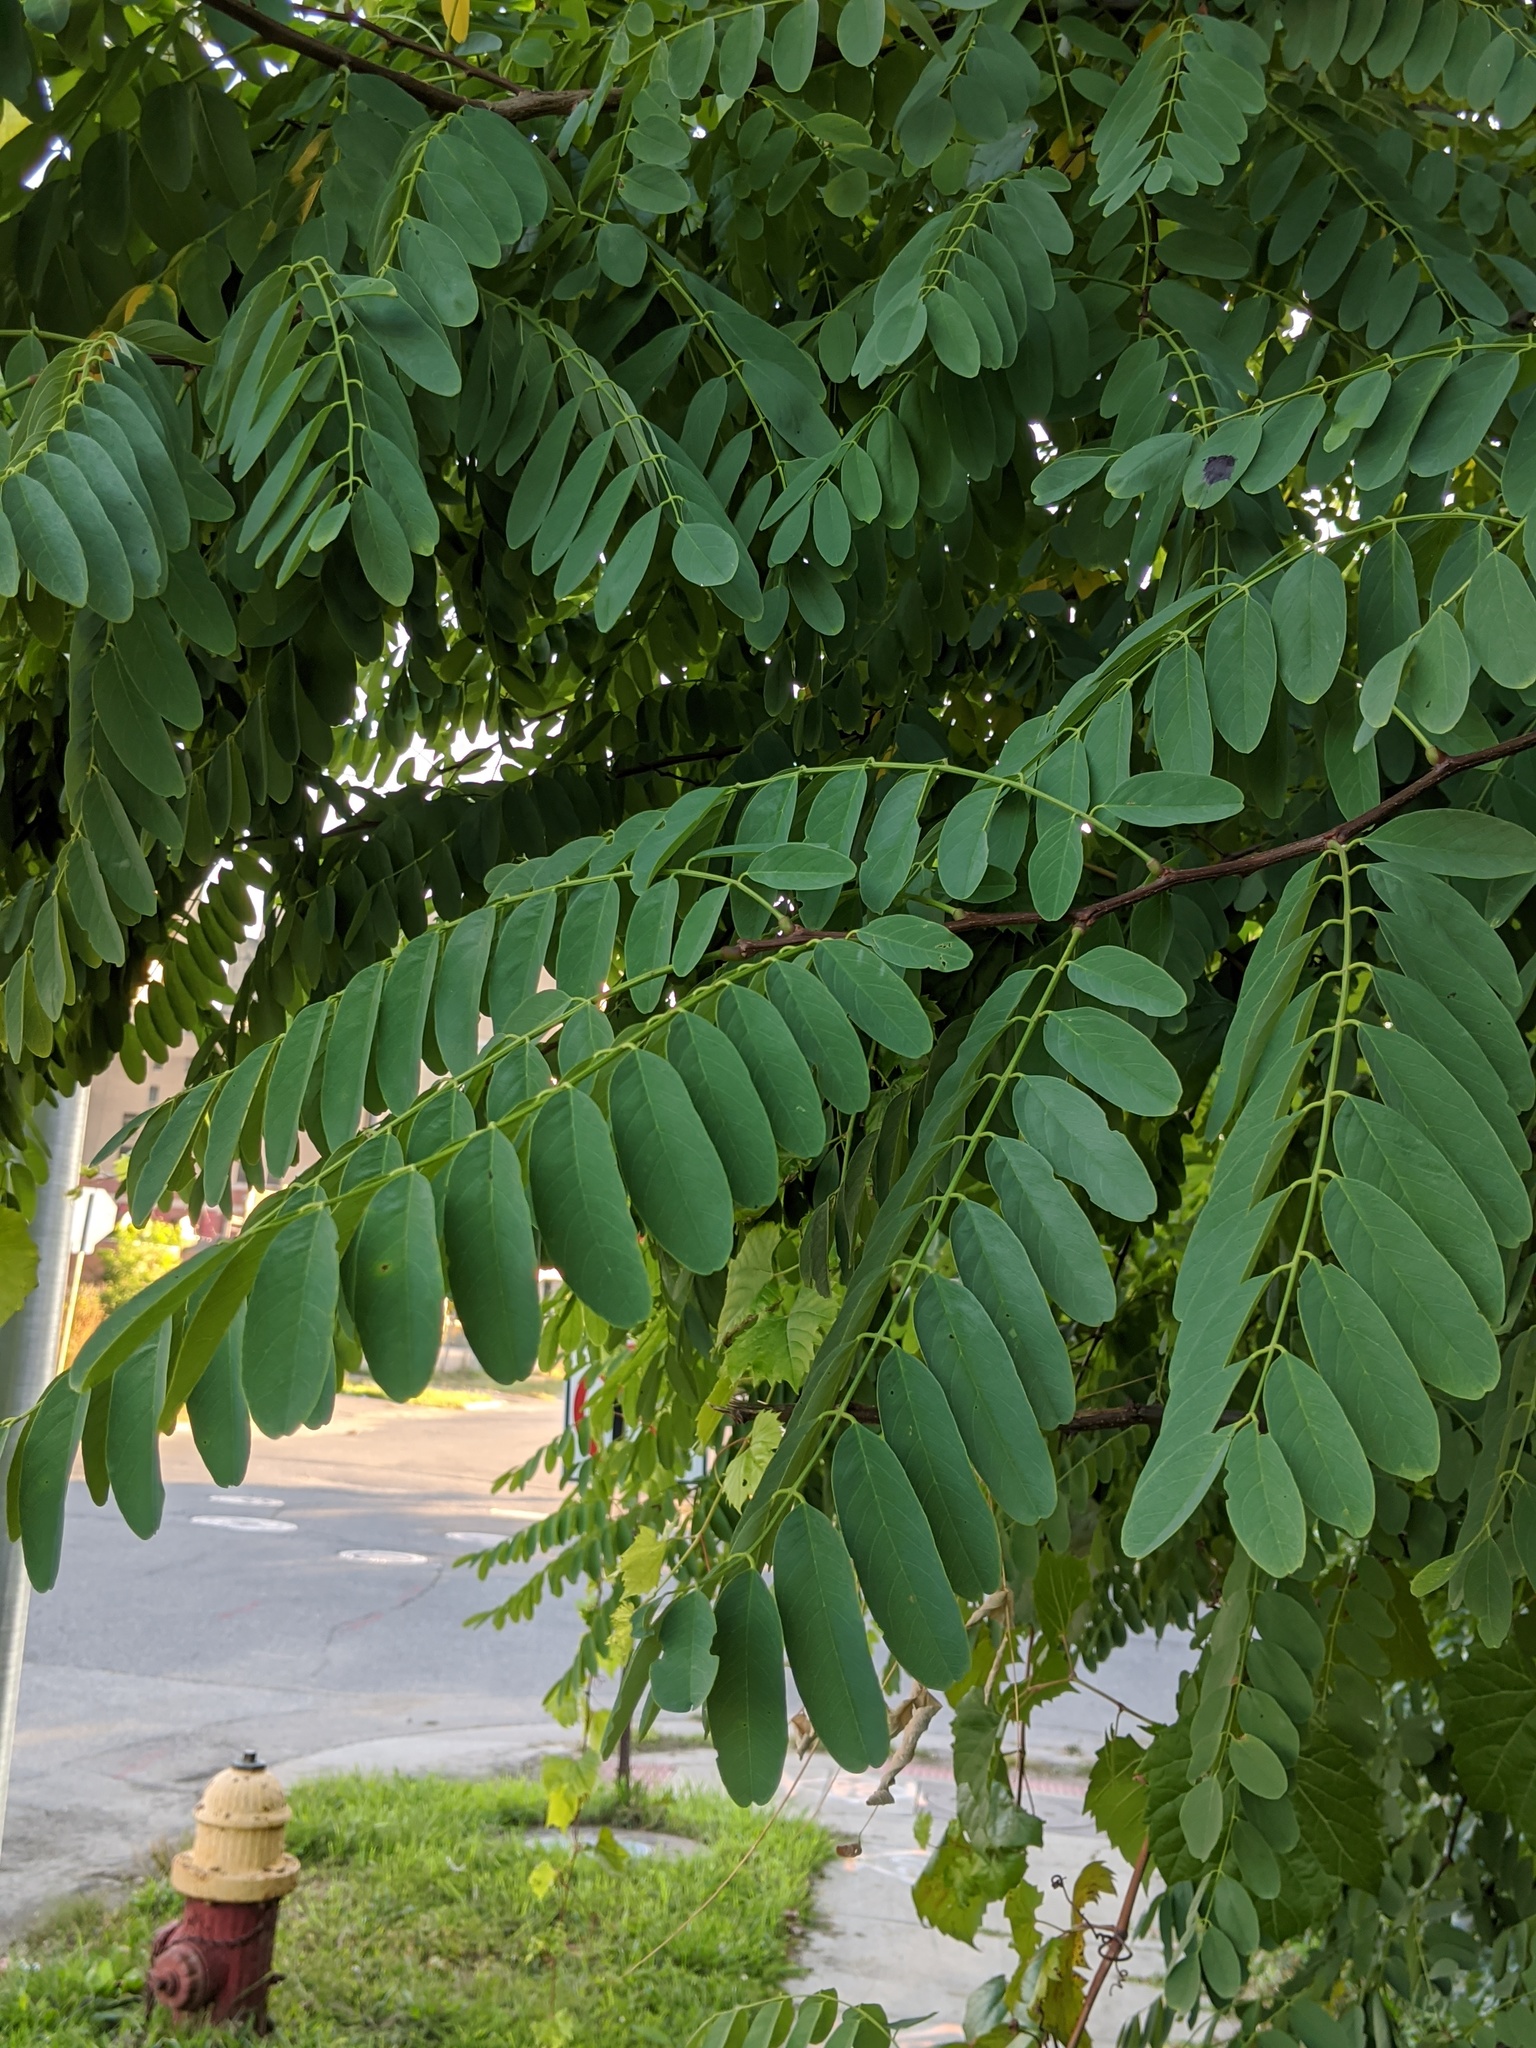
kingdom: Plantae
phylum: Tracheophyta
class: Magnoliopsida
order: Fabales
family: Fabaceae
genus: Robinia
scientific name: Robinia pseudoacacia
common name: Black locust
